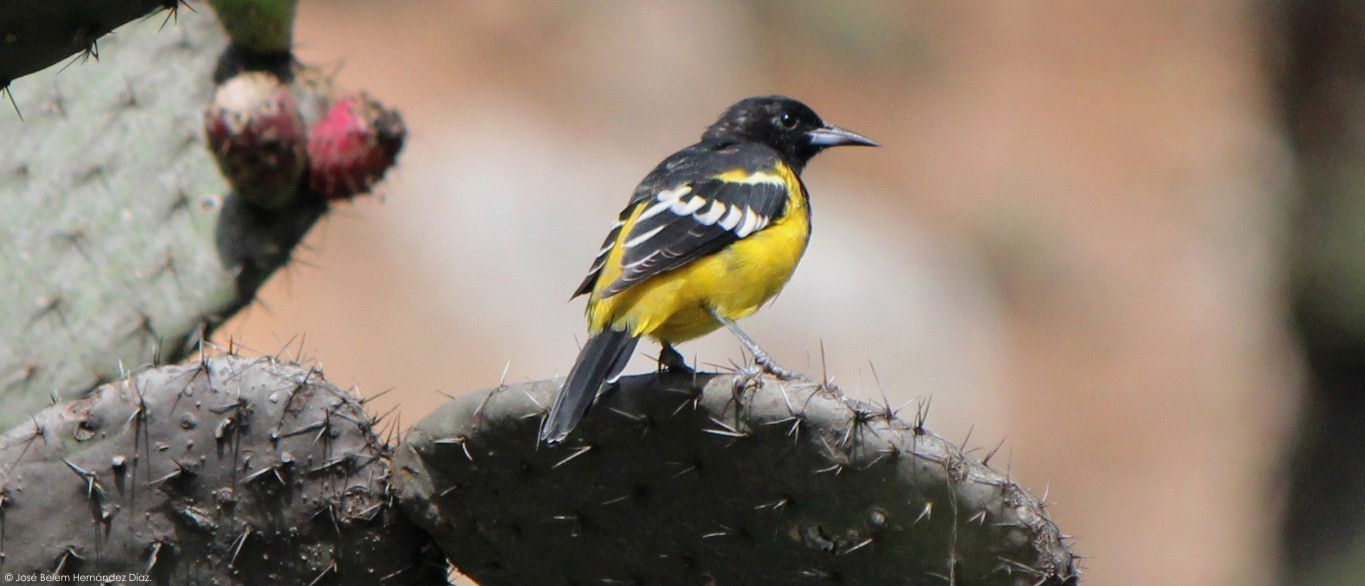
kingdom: Animalia
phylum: Chordata
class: Aves
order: Passeriformes
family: Icteridae
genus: Icterus
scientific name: Icterus parisorum
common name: Scott's oriole
